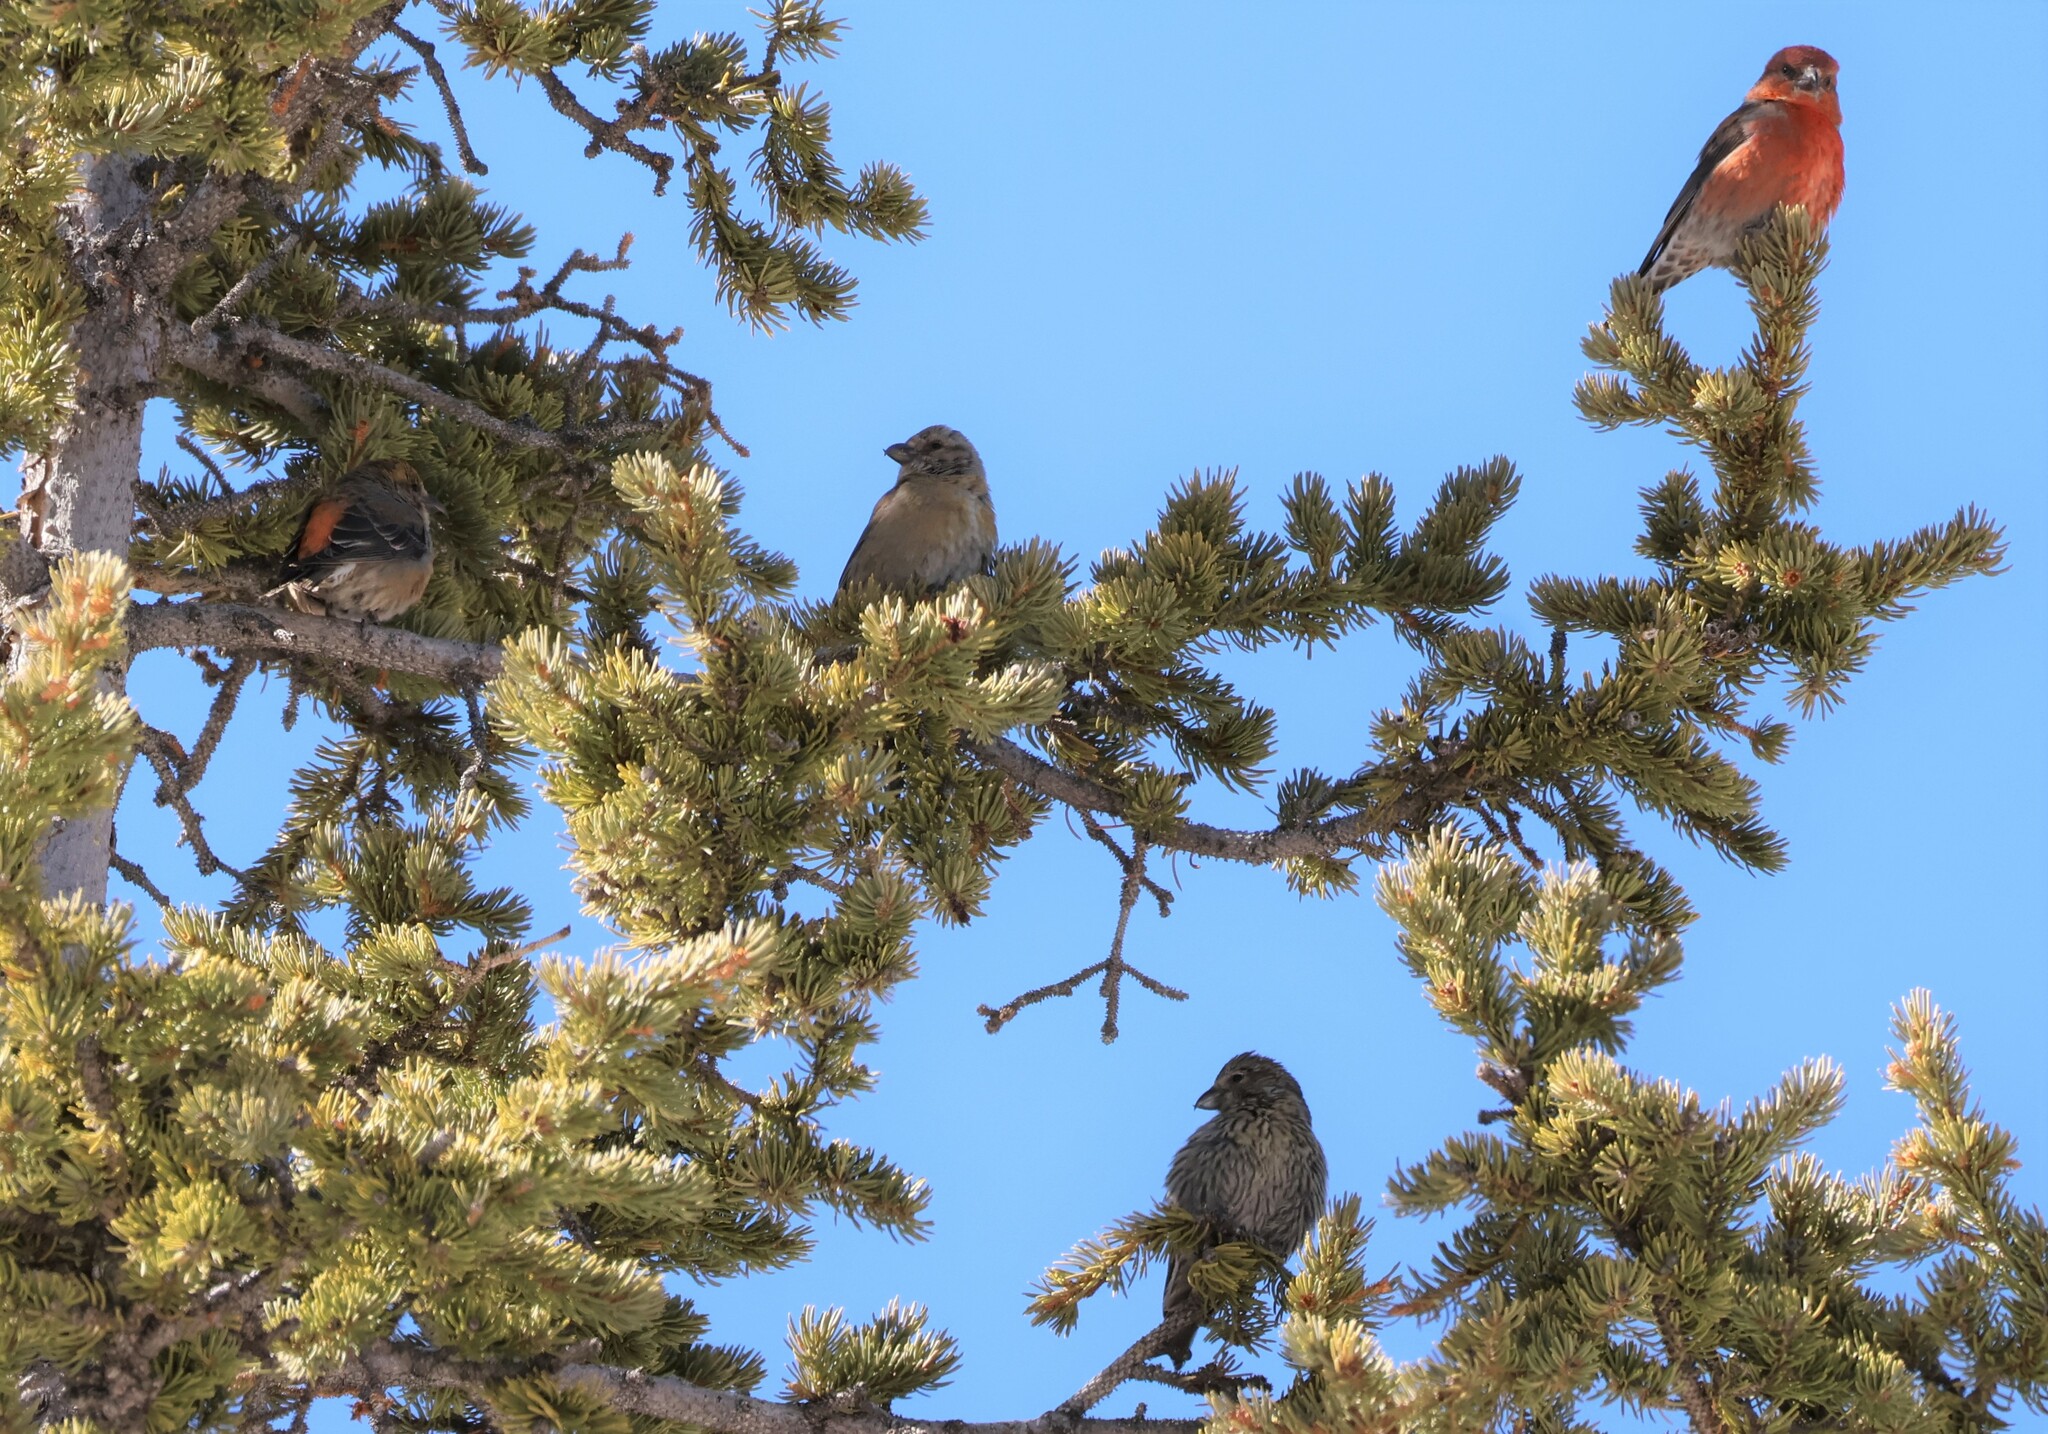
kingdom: Animalia
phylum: Chordata
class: Aves
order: Passeriformes
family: Fringillidae
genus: Loxia
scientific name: Loxia curvirostra
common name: Red crossbill
